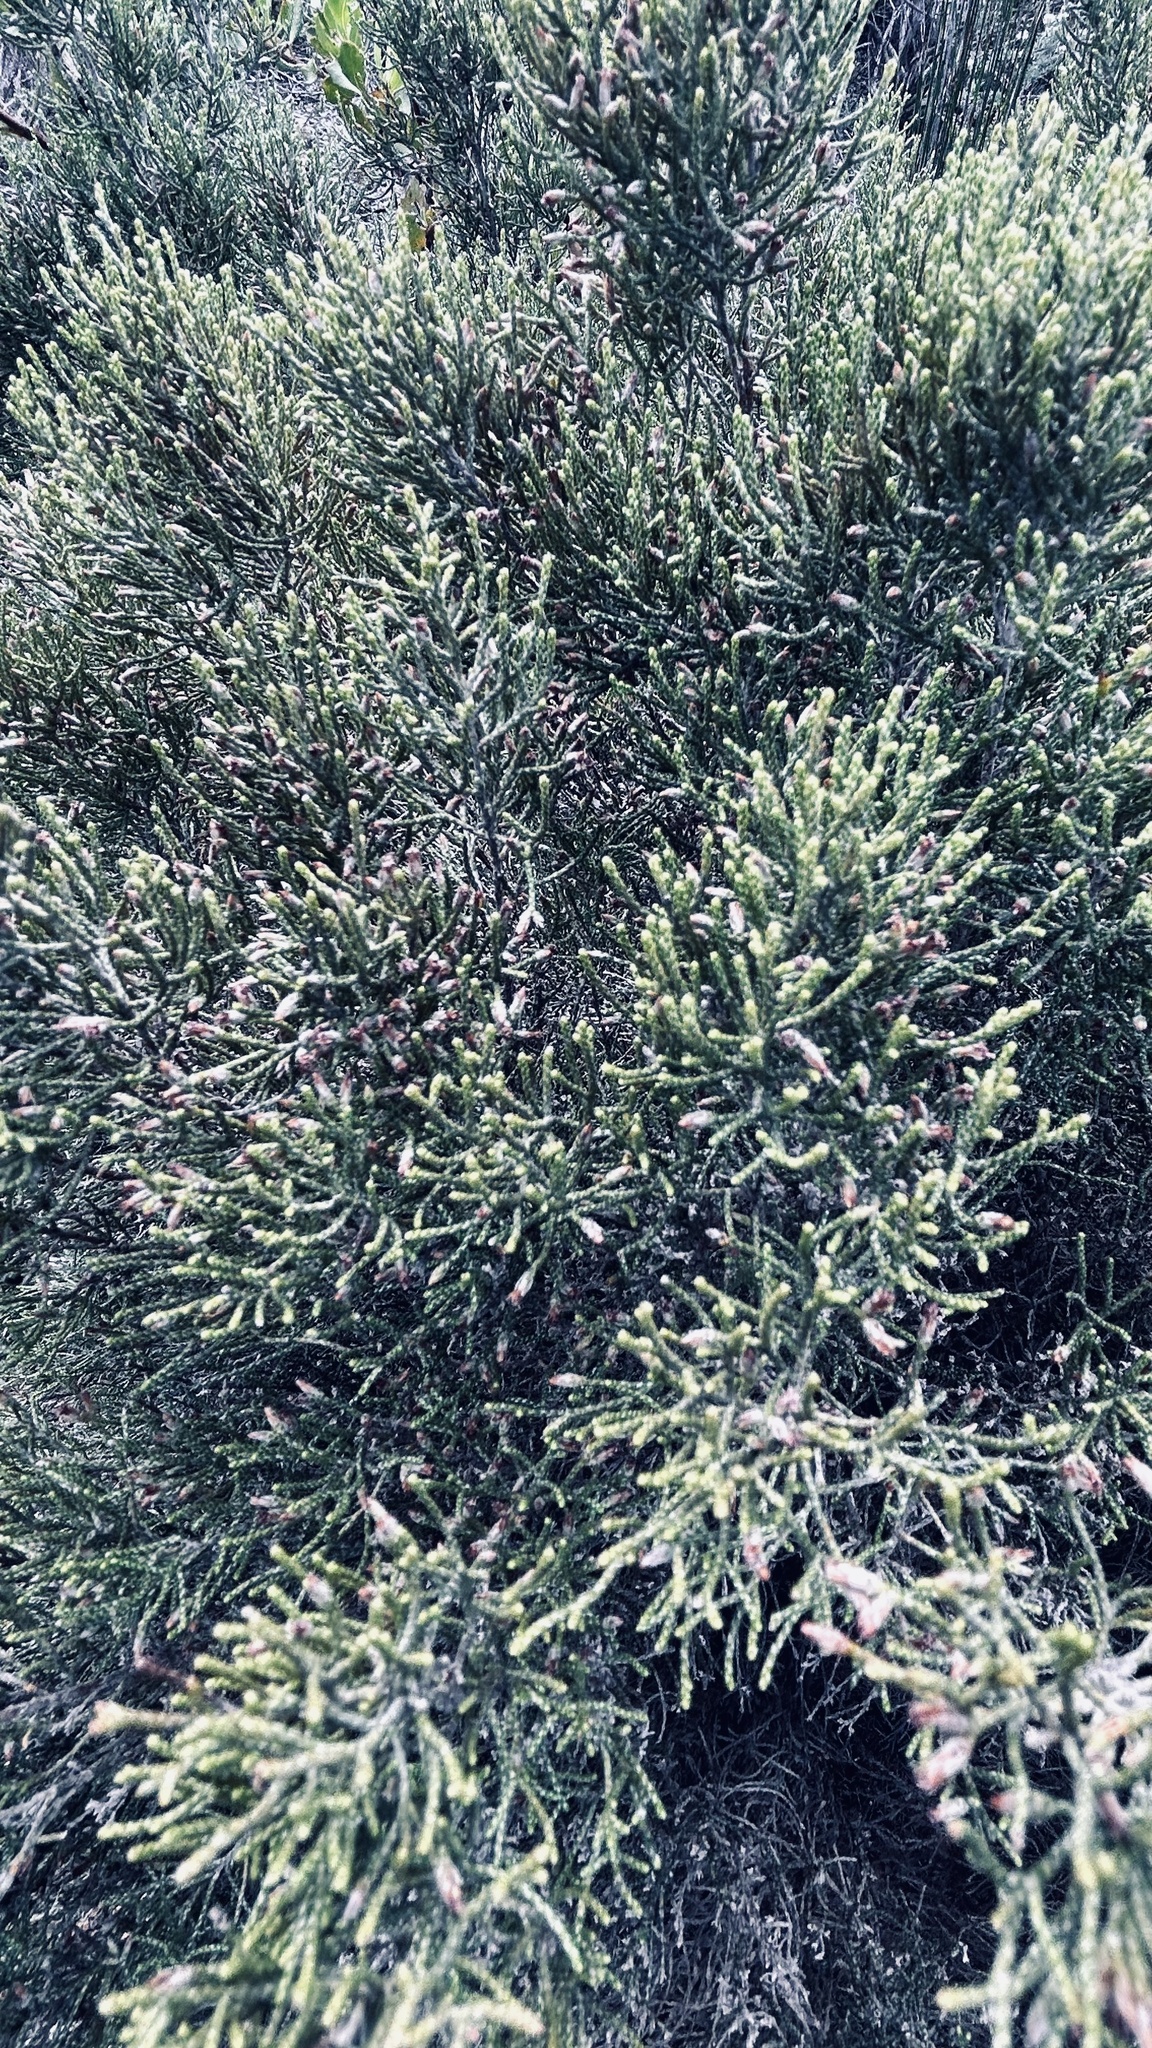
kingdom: Plantae
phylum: Tracheophyta
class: Magnoliopsida
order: Asterales
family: Asteraceae
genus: Dicerothamnus
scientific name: Dicerothamnus rhinocerotis
